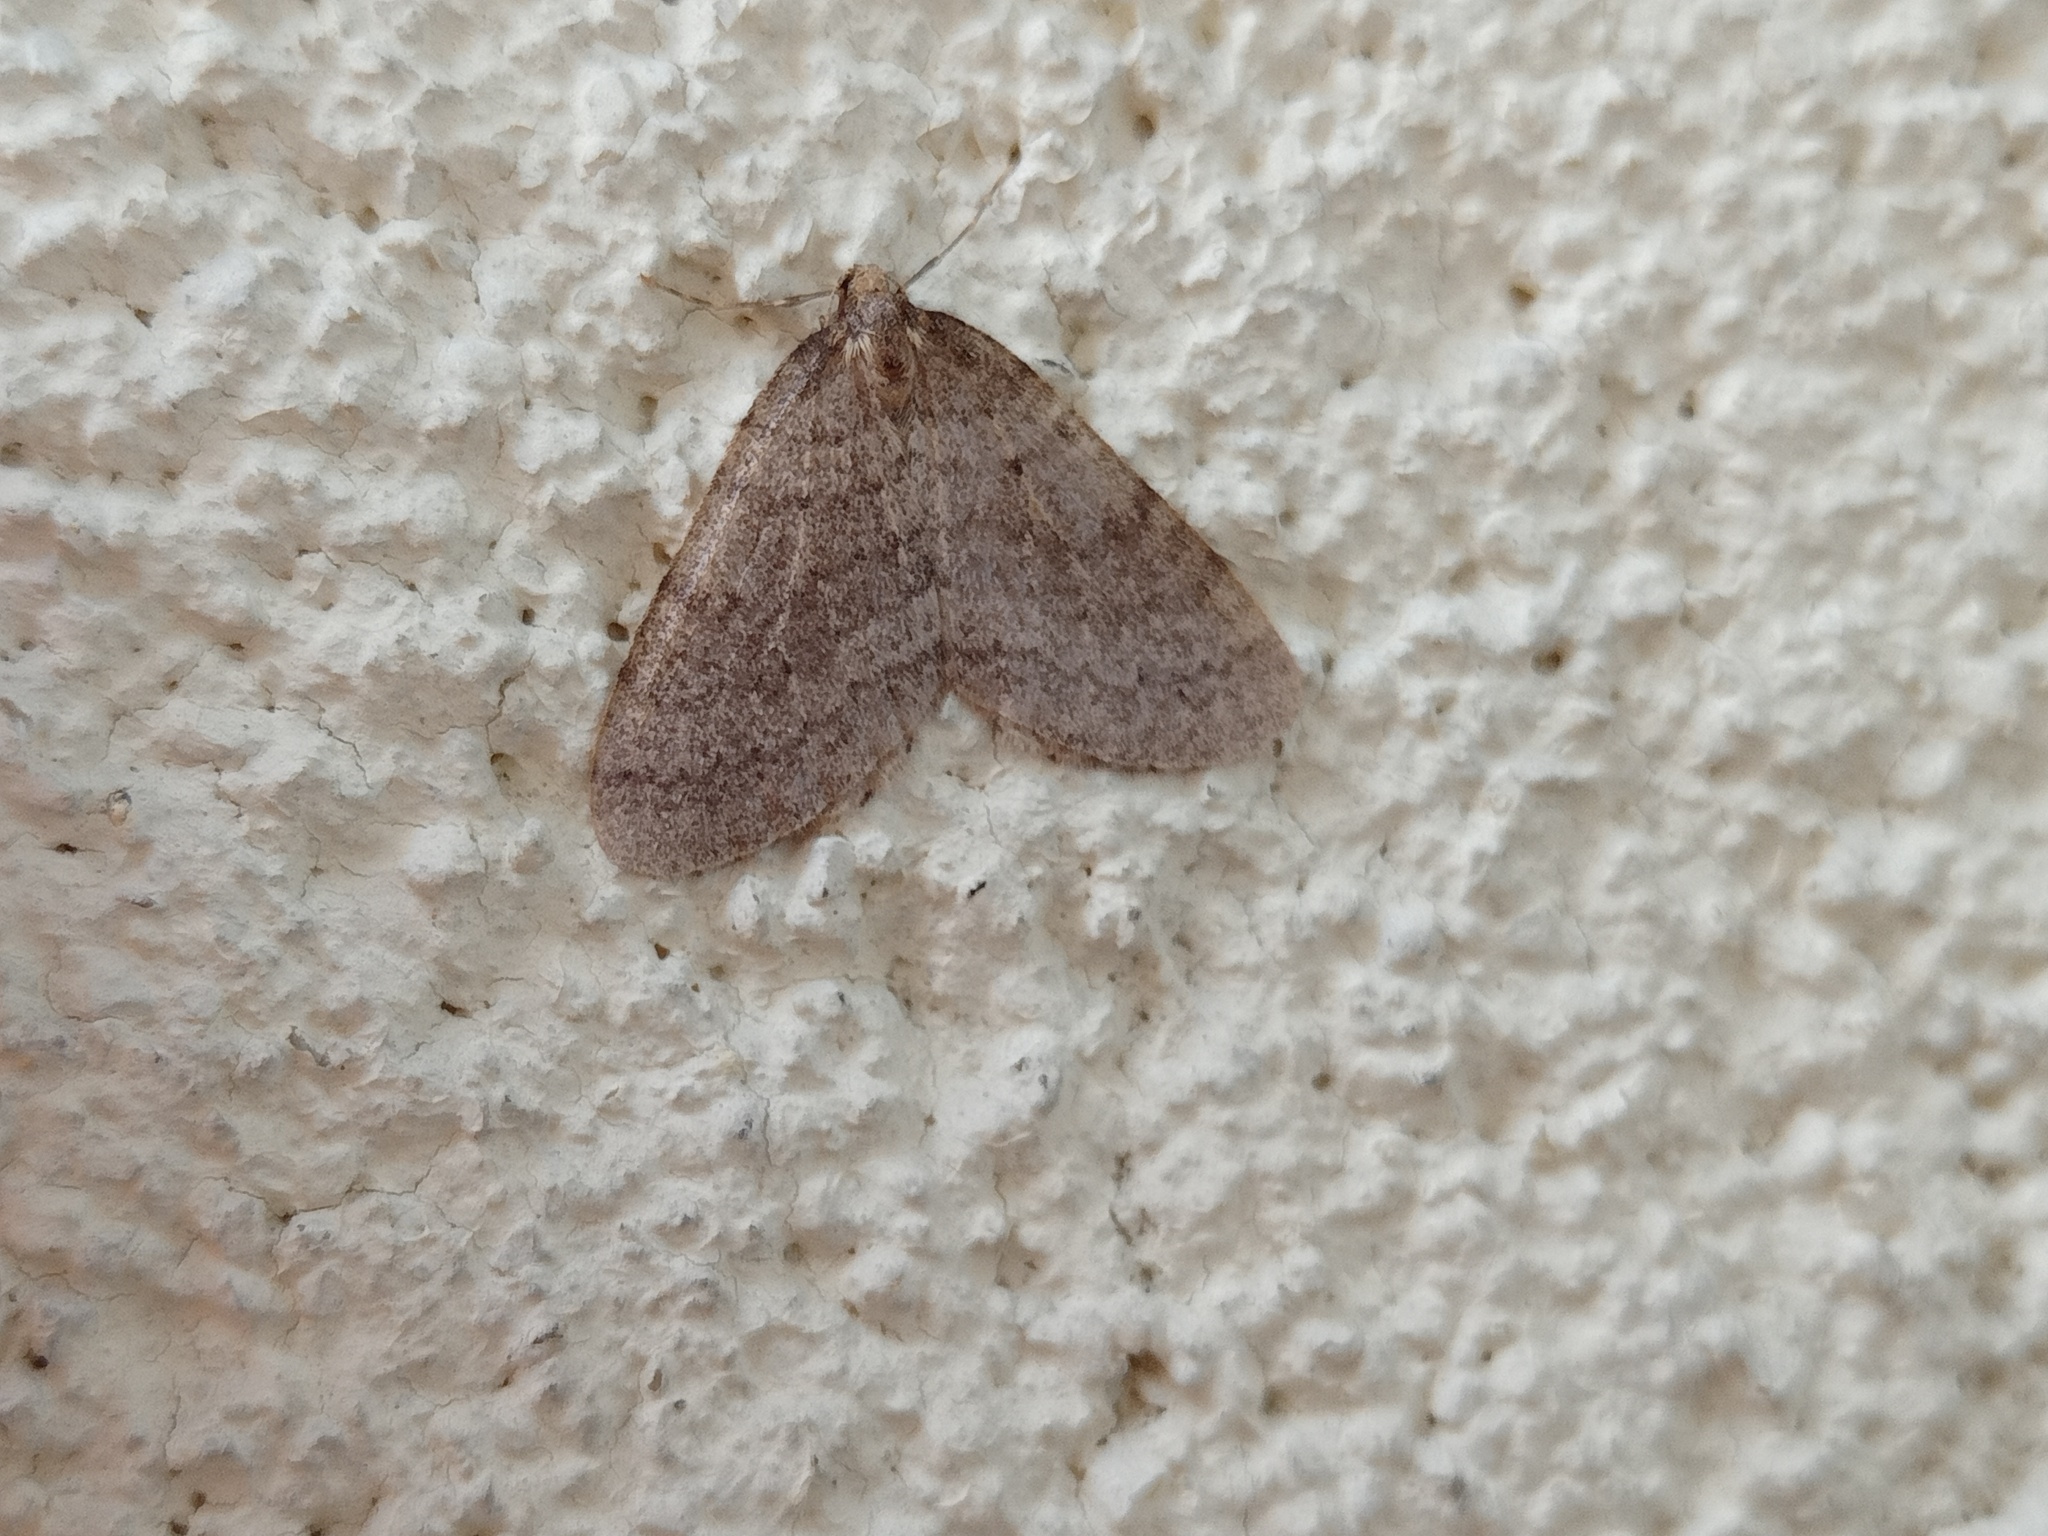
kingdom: Animalia
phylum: Arthropoda
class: Insecta
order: Lepidoptera
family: Geometridae
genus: Operophtera
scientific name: Operophtera brumata
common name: Winter moth
